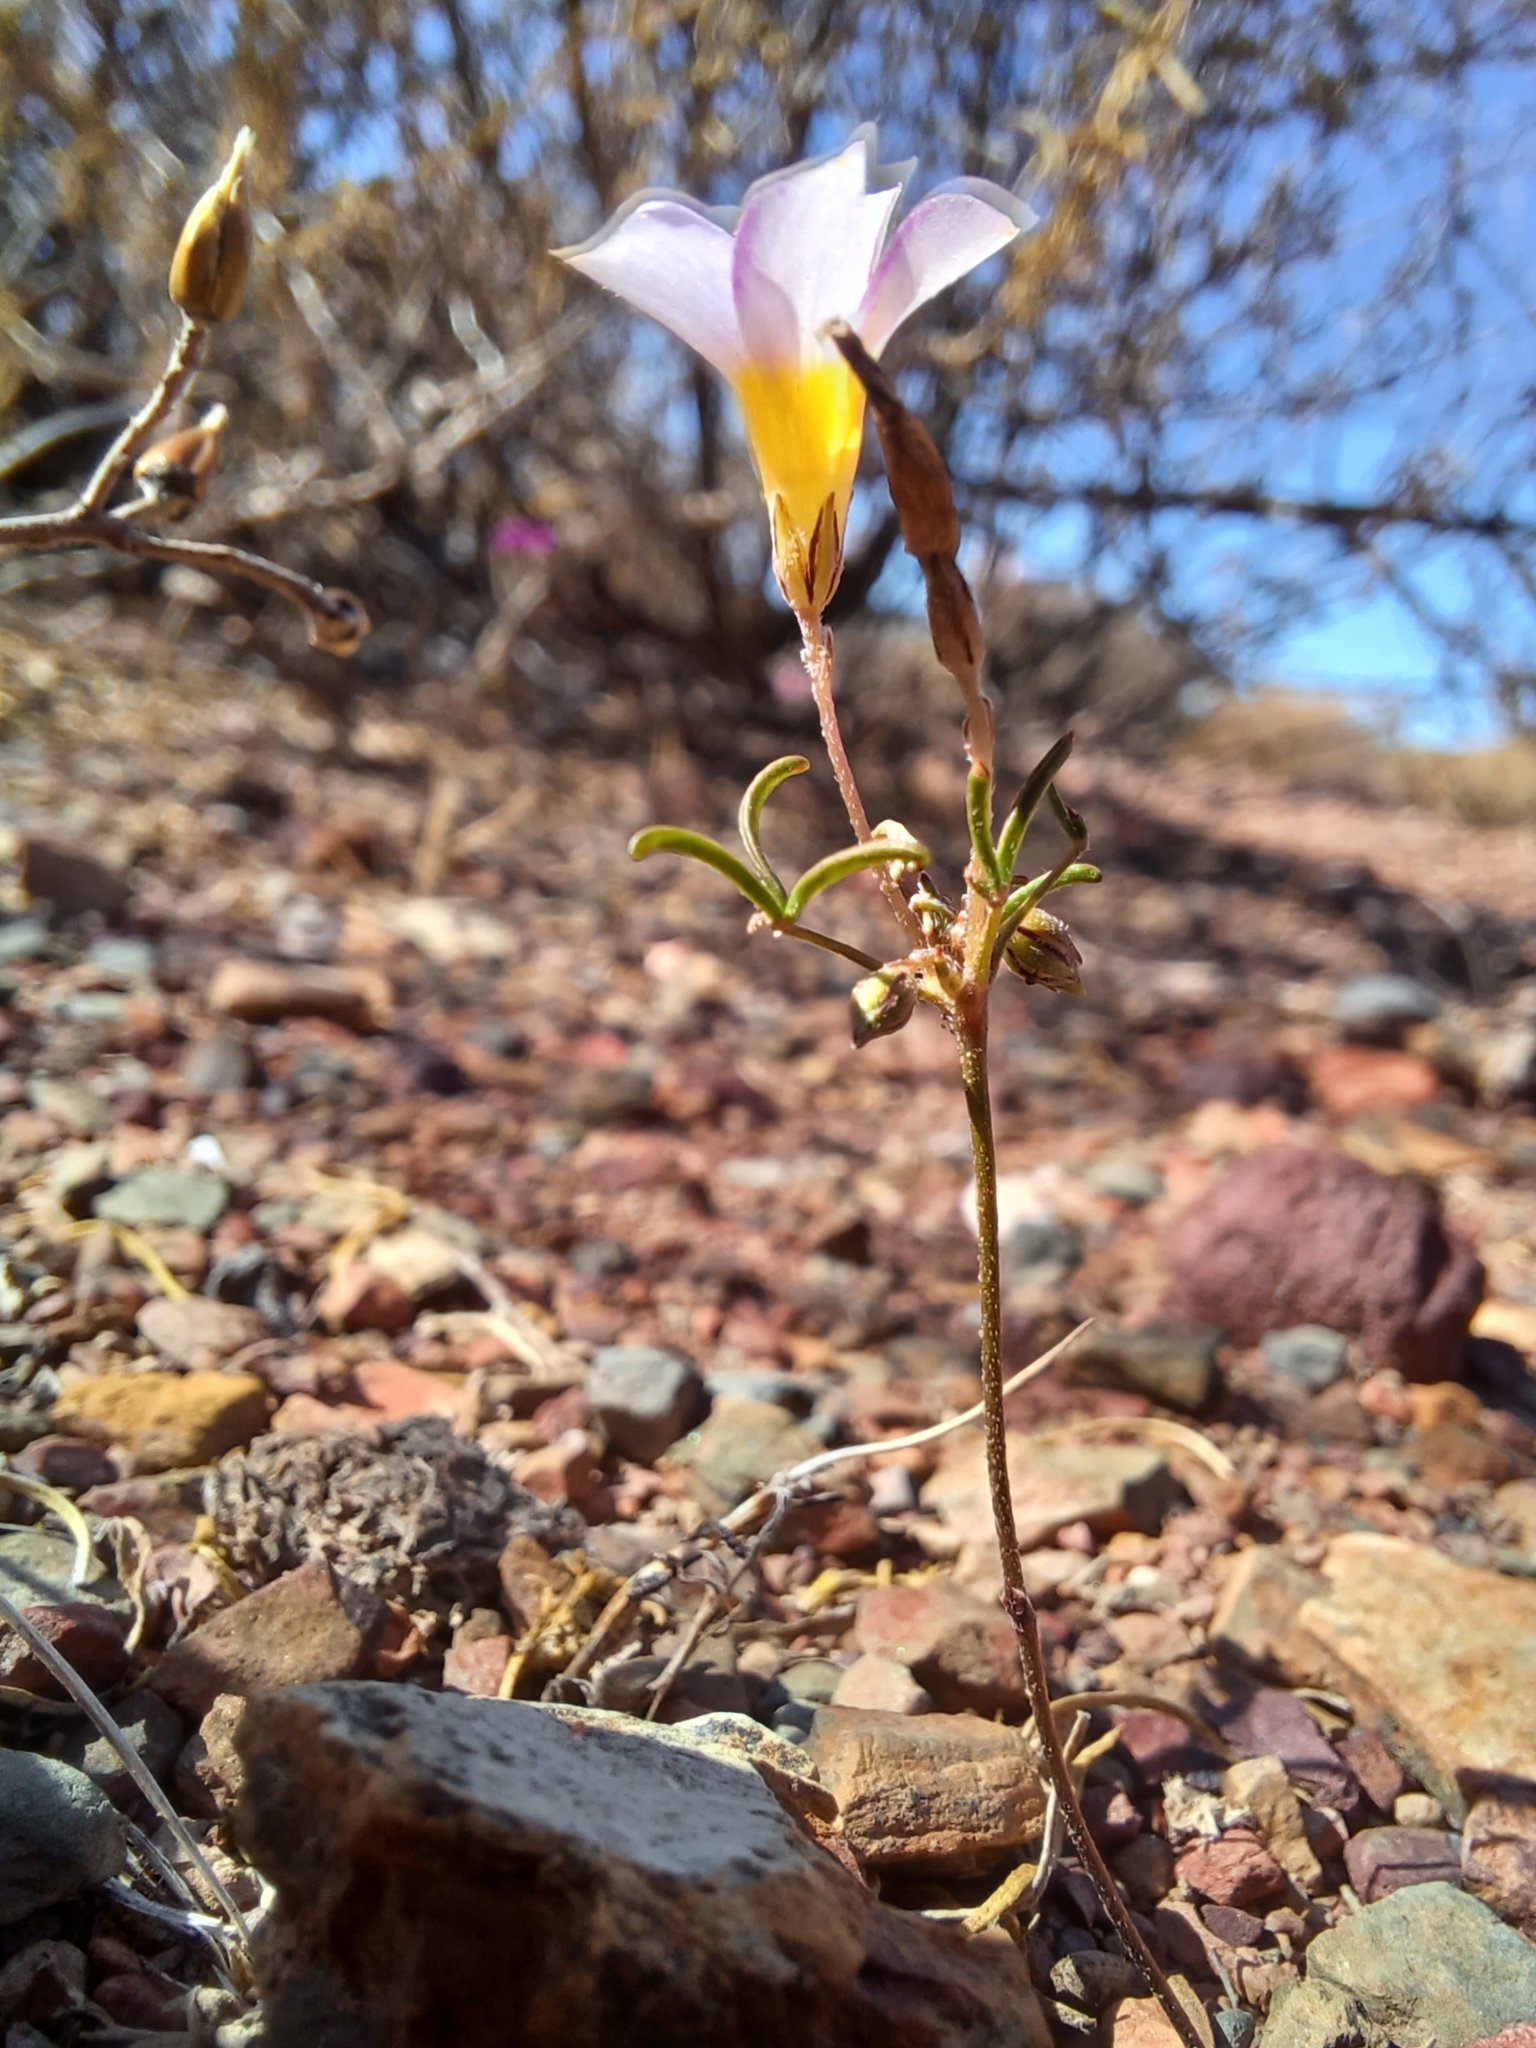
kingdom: Plantae
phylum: Tracheophyta
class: Magnoliopsida
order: Oxalidales
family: Oxalidaceae
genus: Oxalis
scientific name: Oxalis burkei
